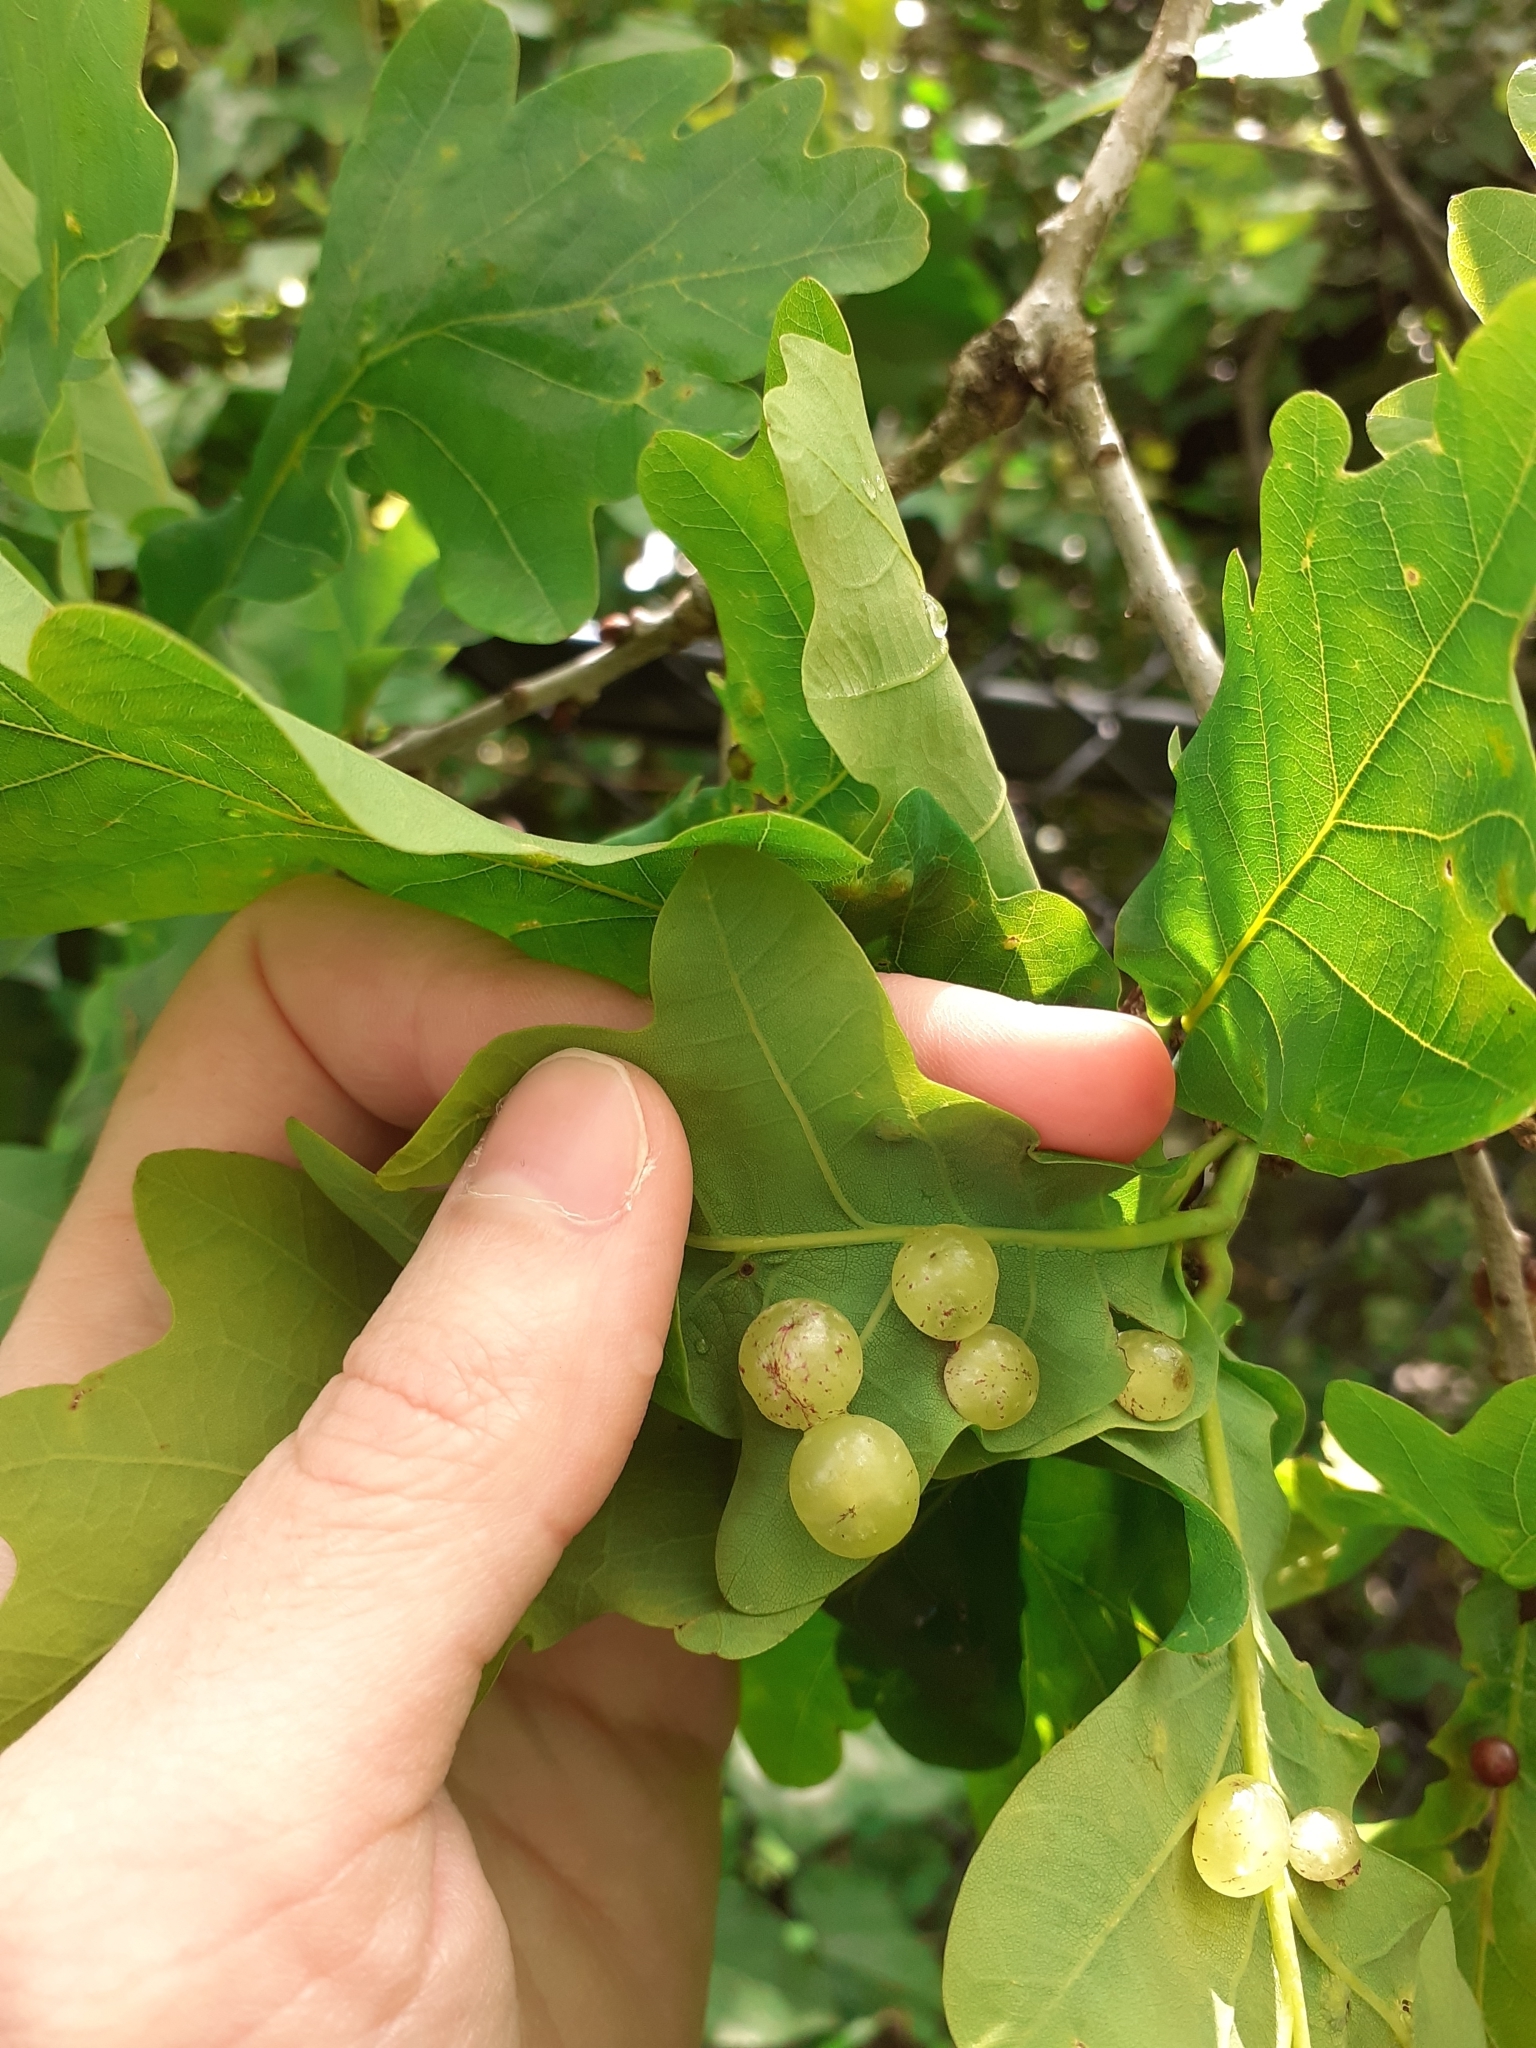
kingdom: Animalia
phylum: Arthropoda
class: Insecta
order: Hymenoptera
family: Cynipidae
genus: Neuroterus
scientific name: Neuroterus quercusbaccarum
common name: Common spangle gall
